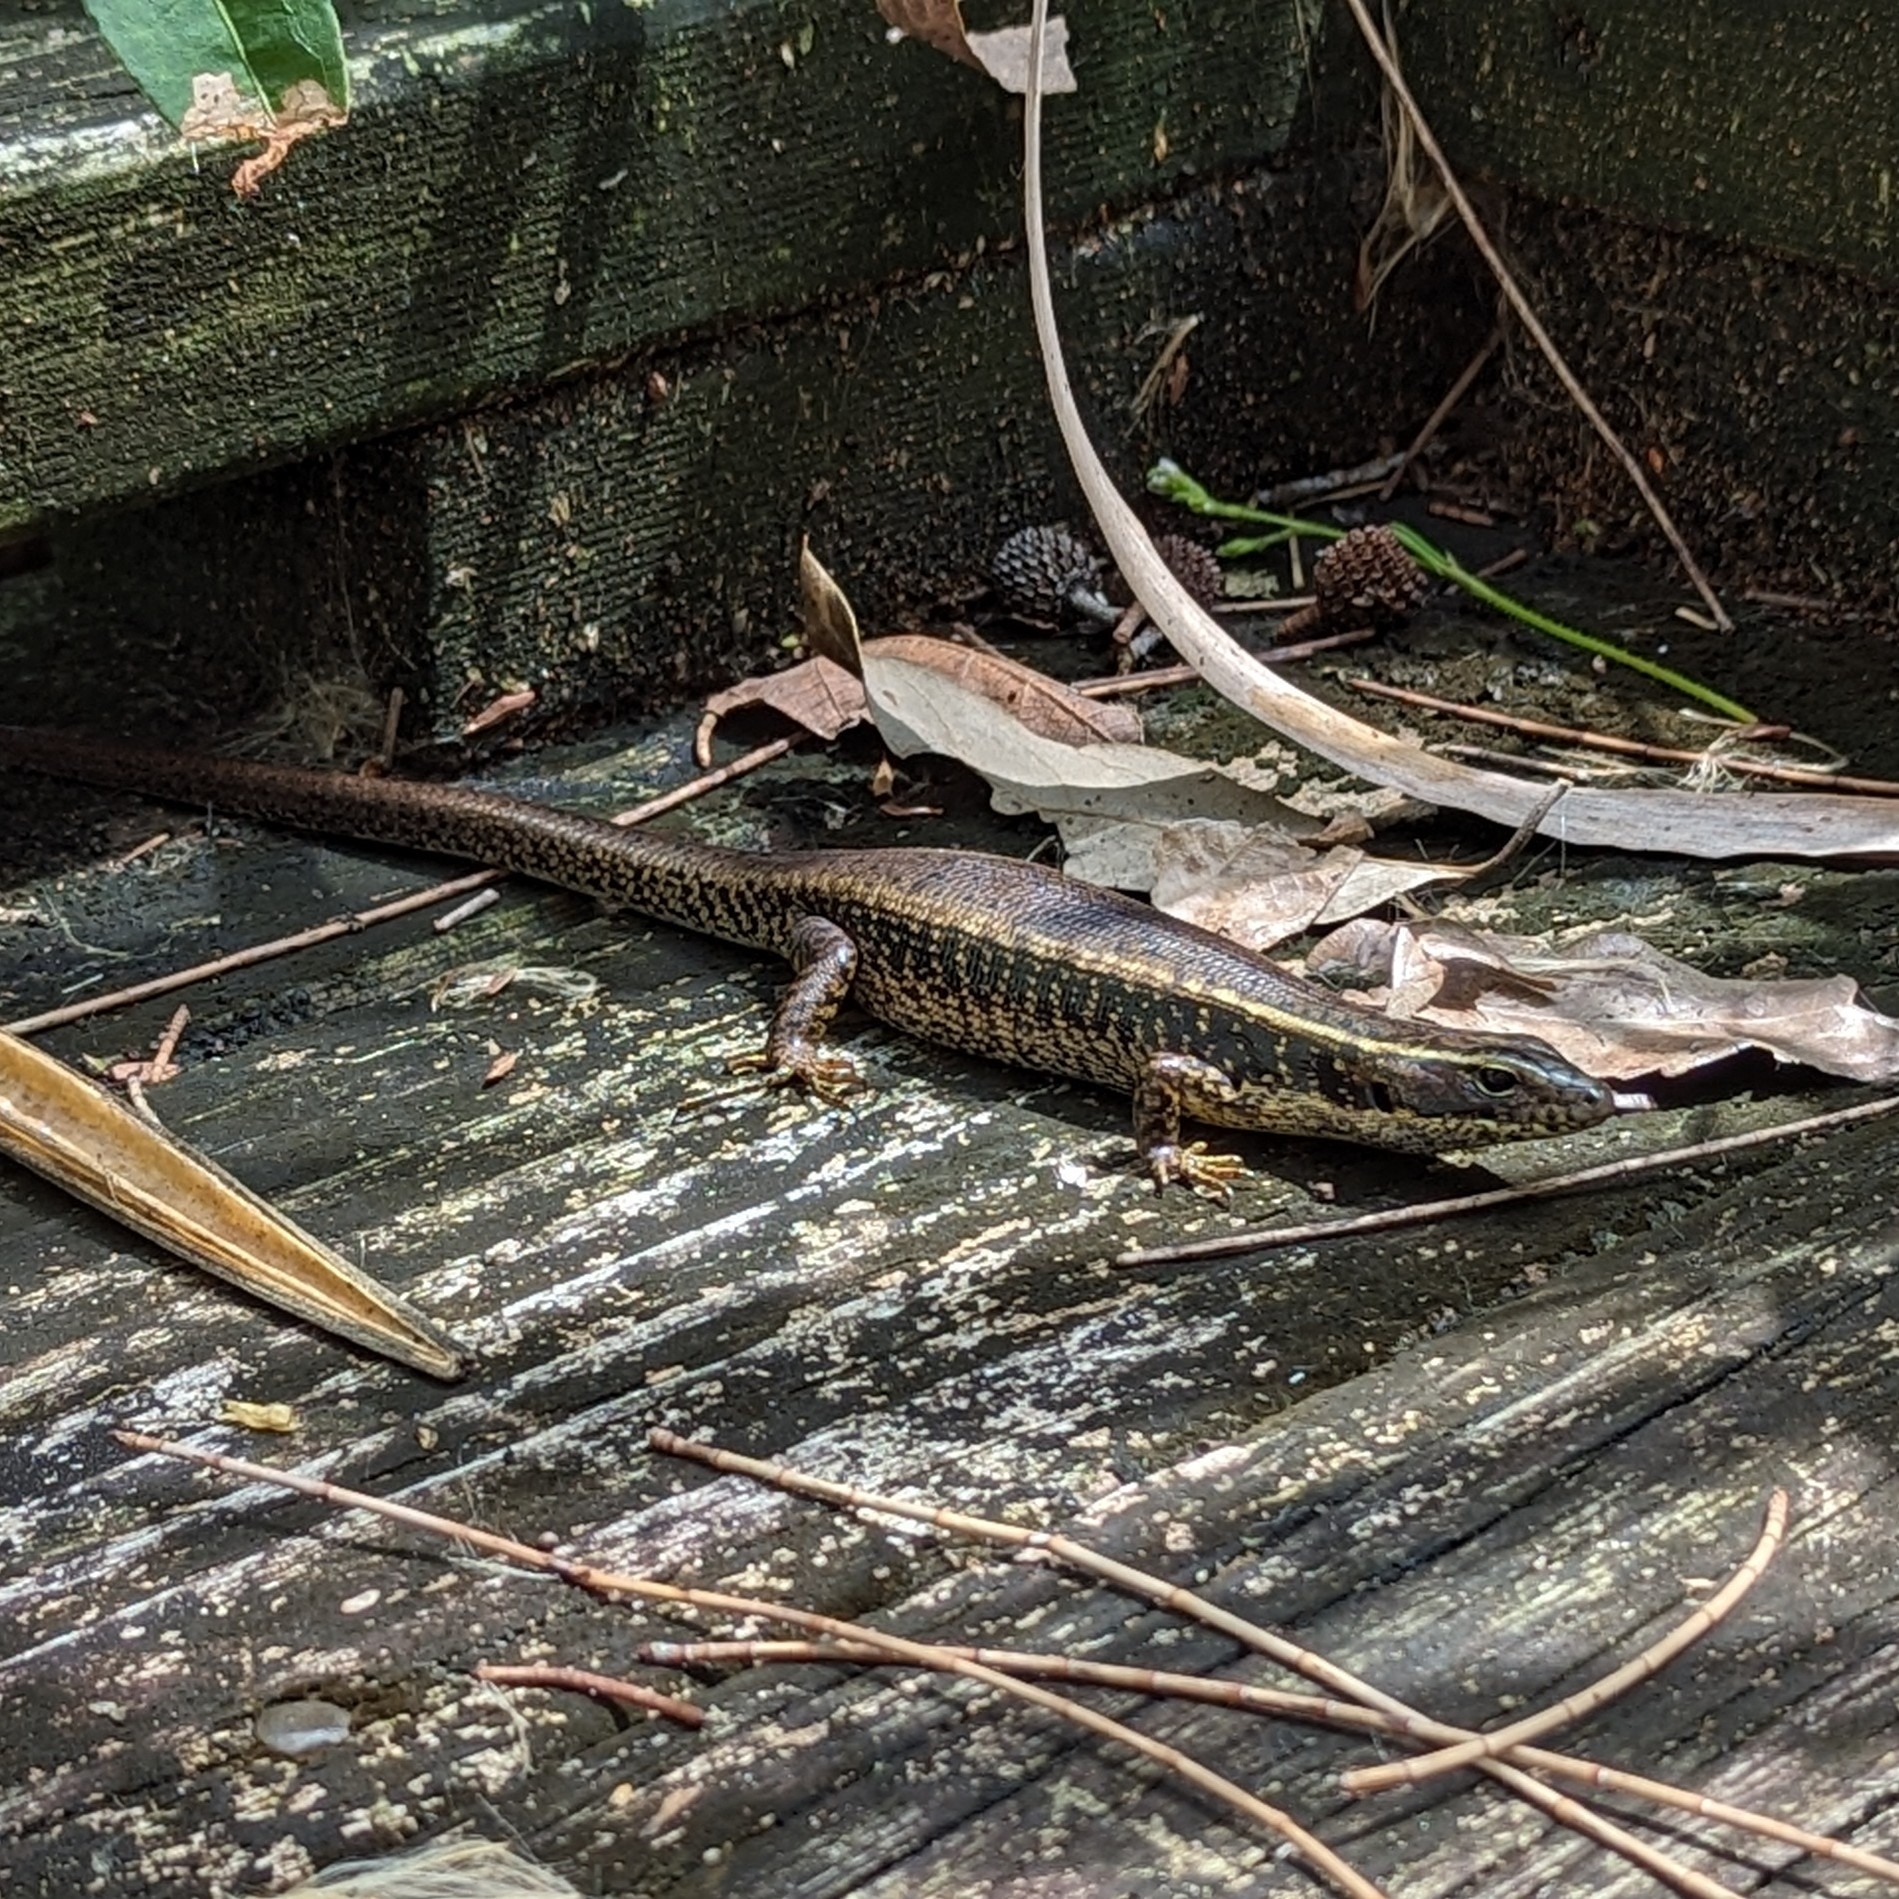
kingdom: Animalia
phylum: Chordata
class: Squamata
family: Scincidae
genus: Eulamprus
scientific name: Eulamprus quoyii
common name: Eastern water skink
